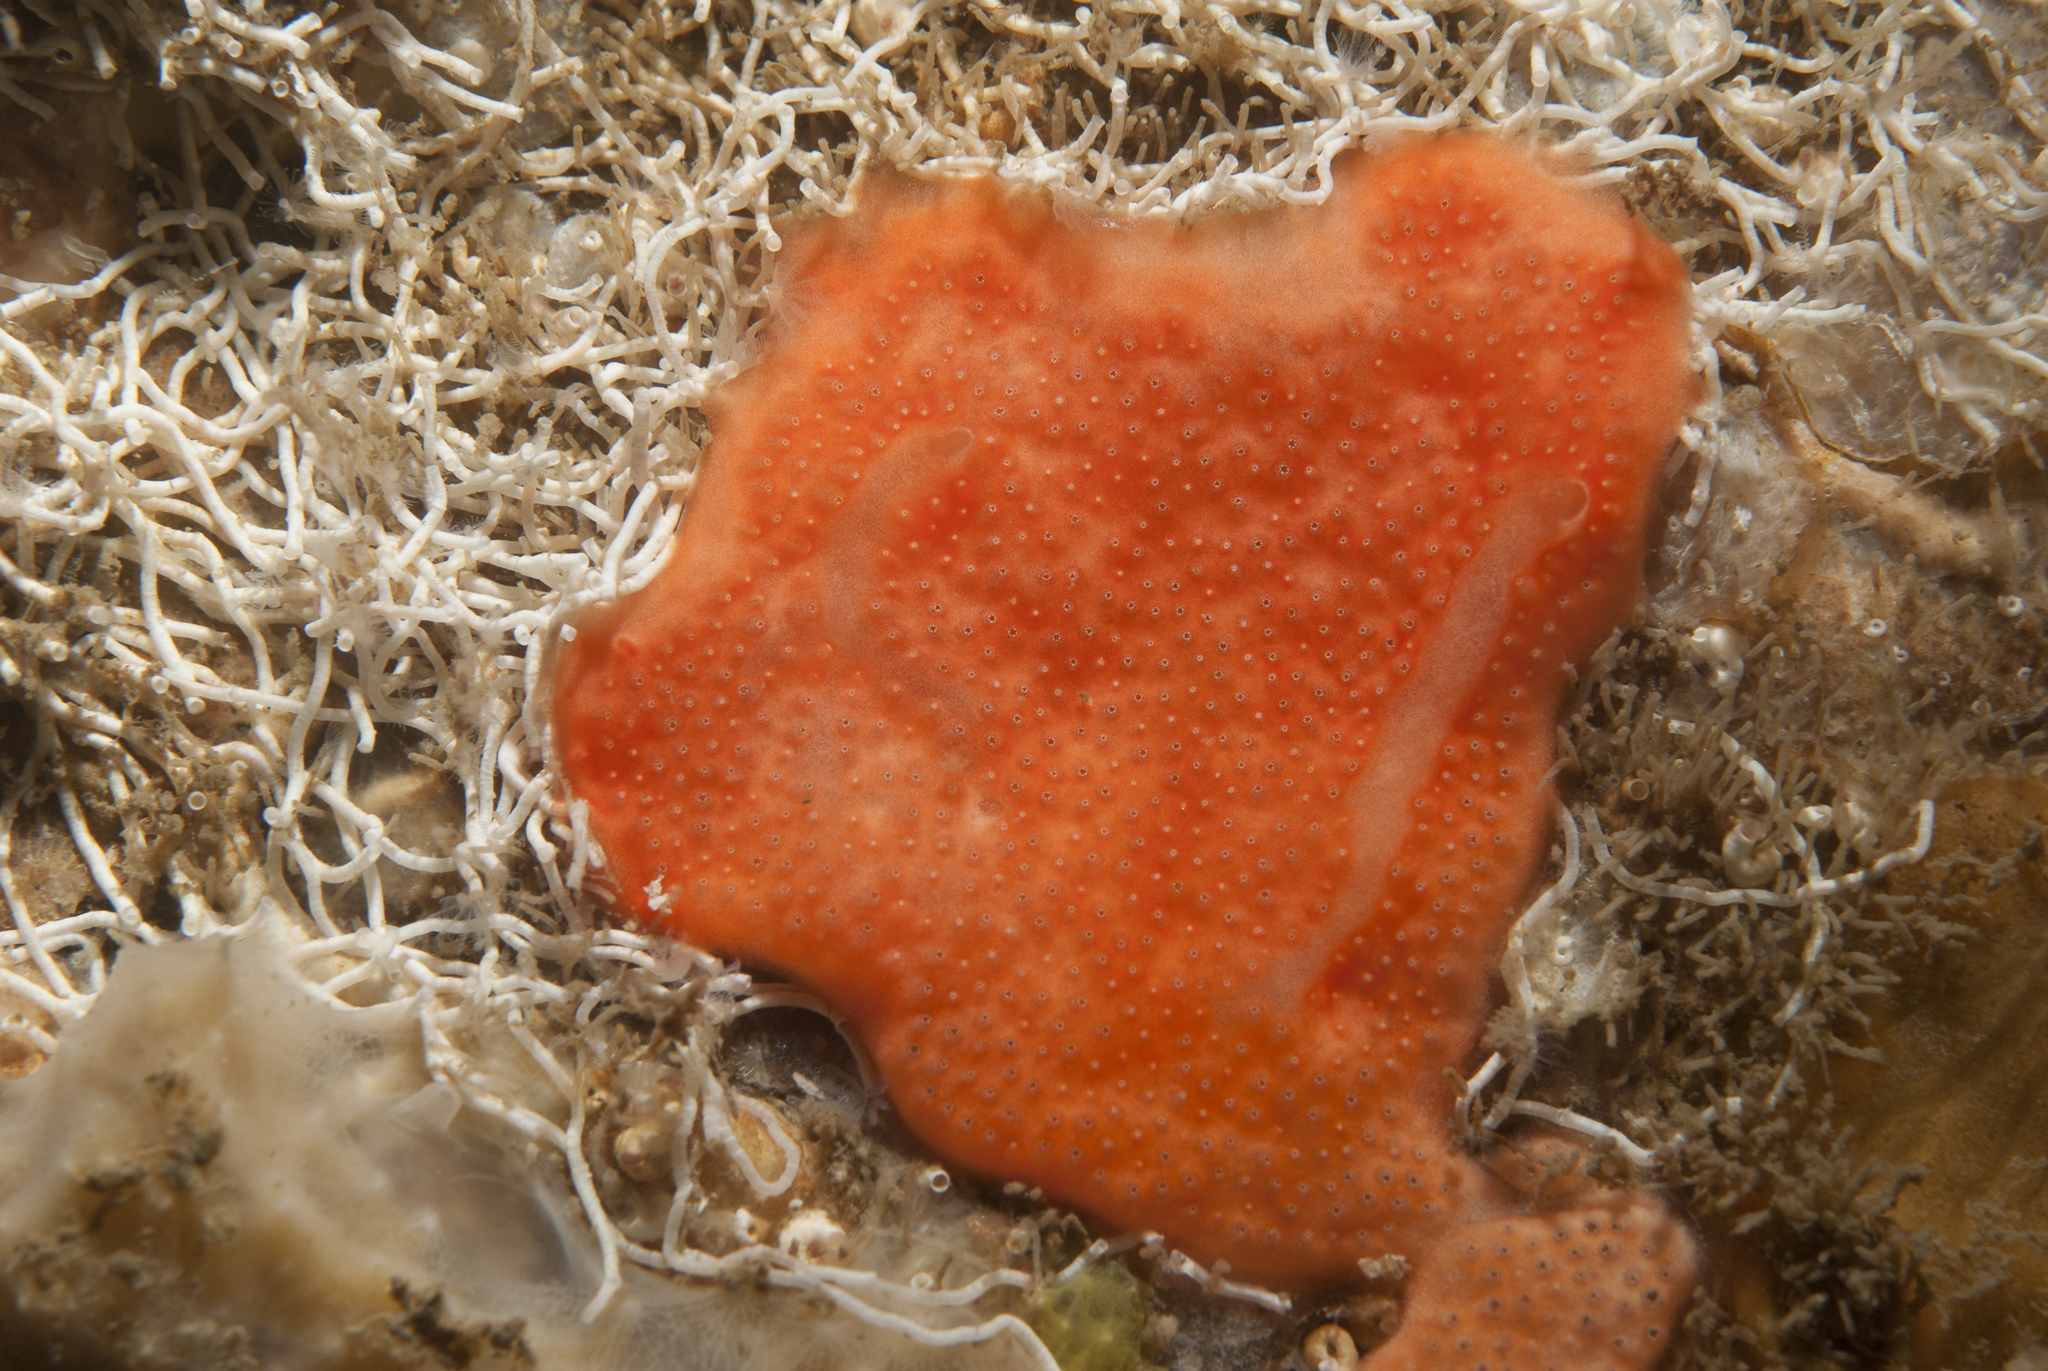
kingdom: Animalia
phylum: Chordata
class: Ascidiacea
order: Aplousobranchia
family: Didemnidae
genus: Didemnum
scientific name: Didemnum pseudofulgens
